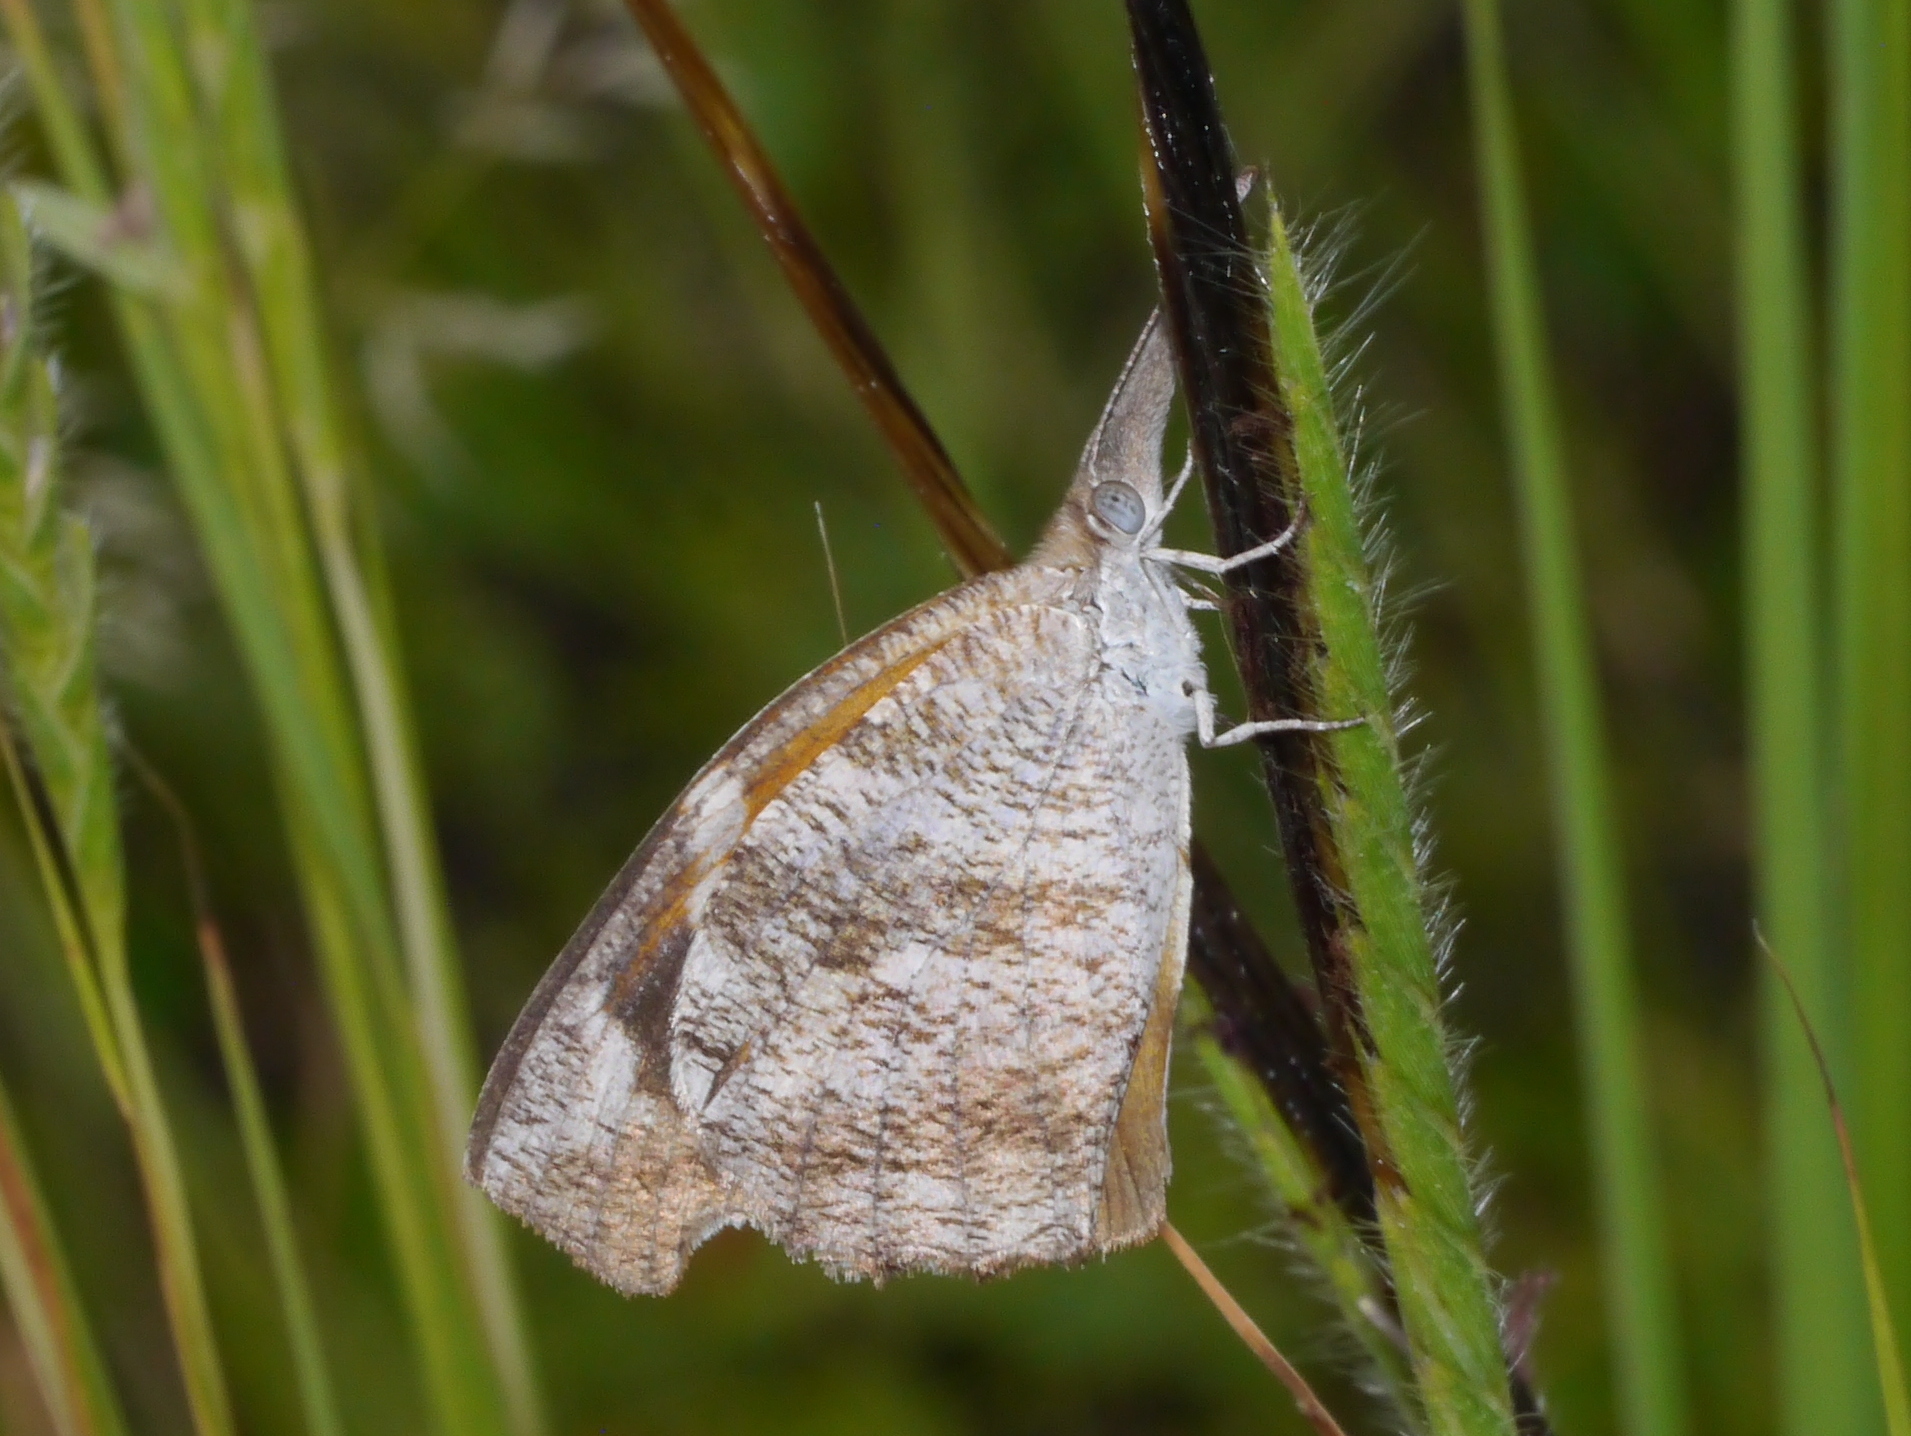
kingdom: Animalia
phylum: Arthropoda
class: Insecta
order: Lepidoptera
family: Nymphalidae
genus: Libytheana
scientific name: Libytheana carinenta
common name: American snout
